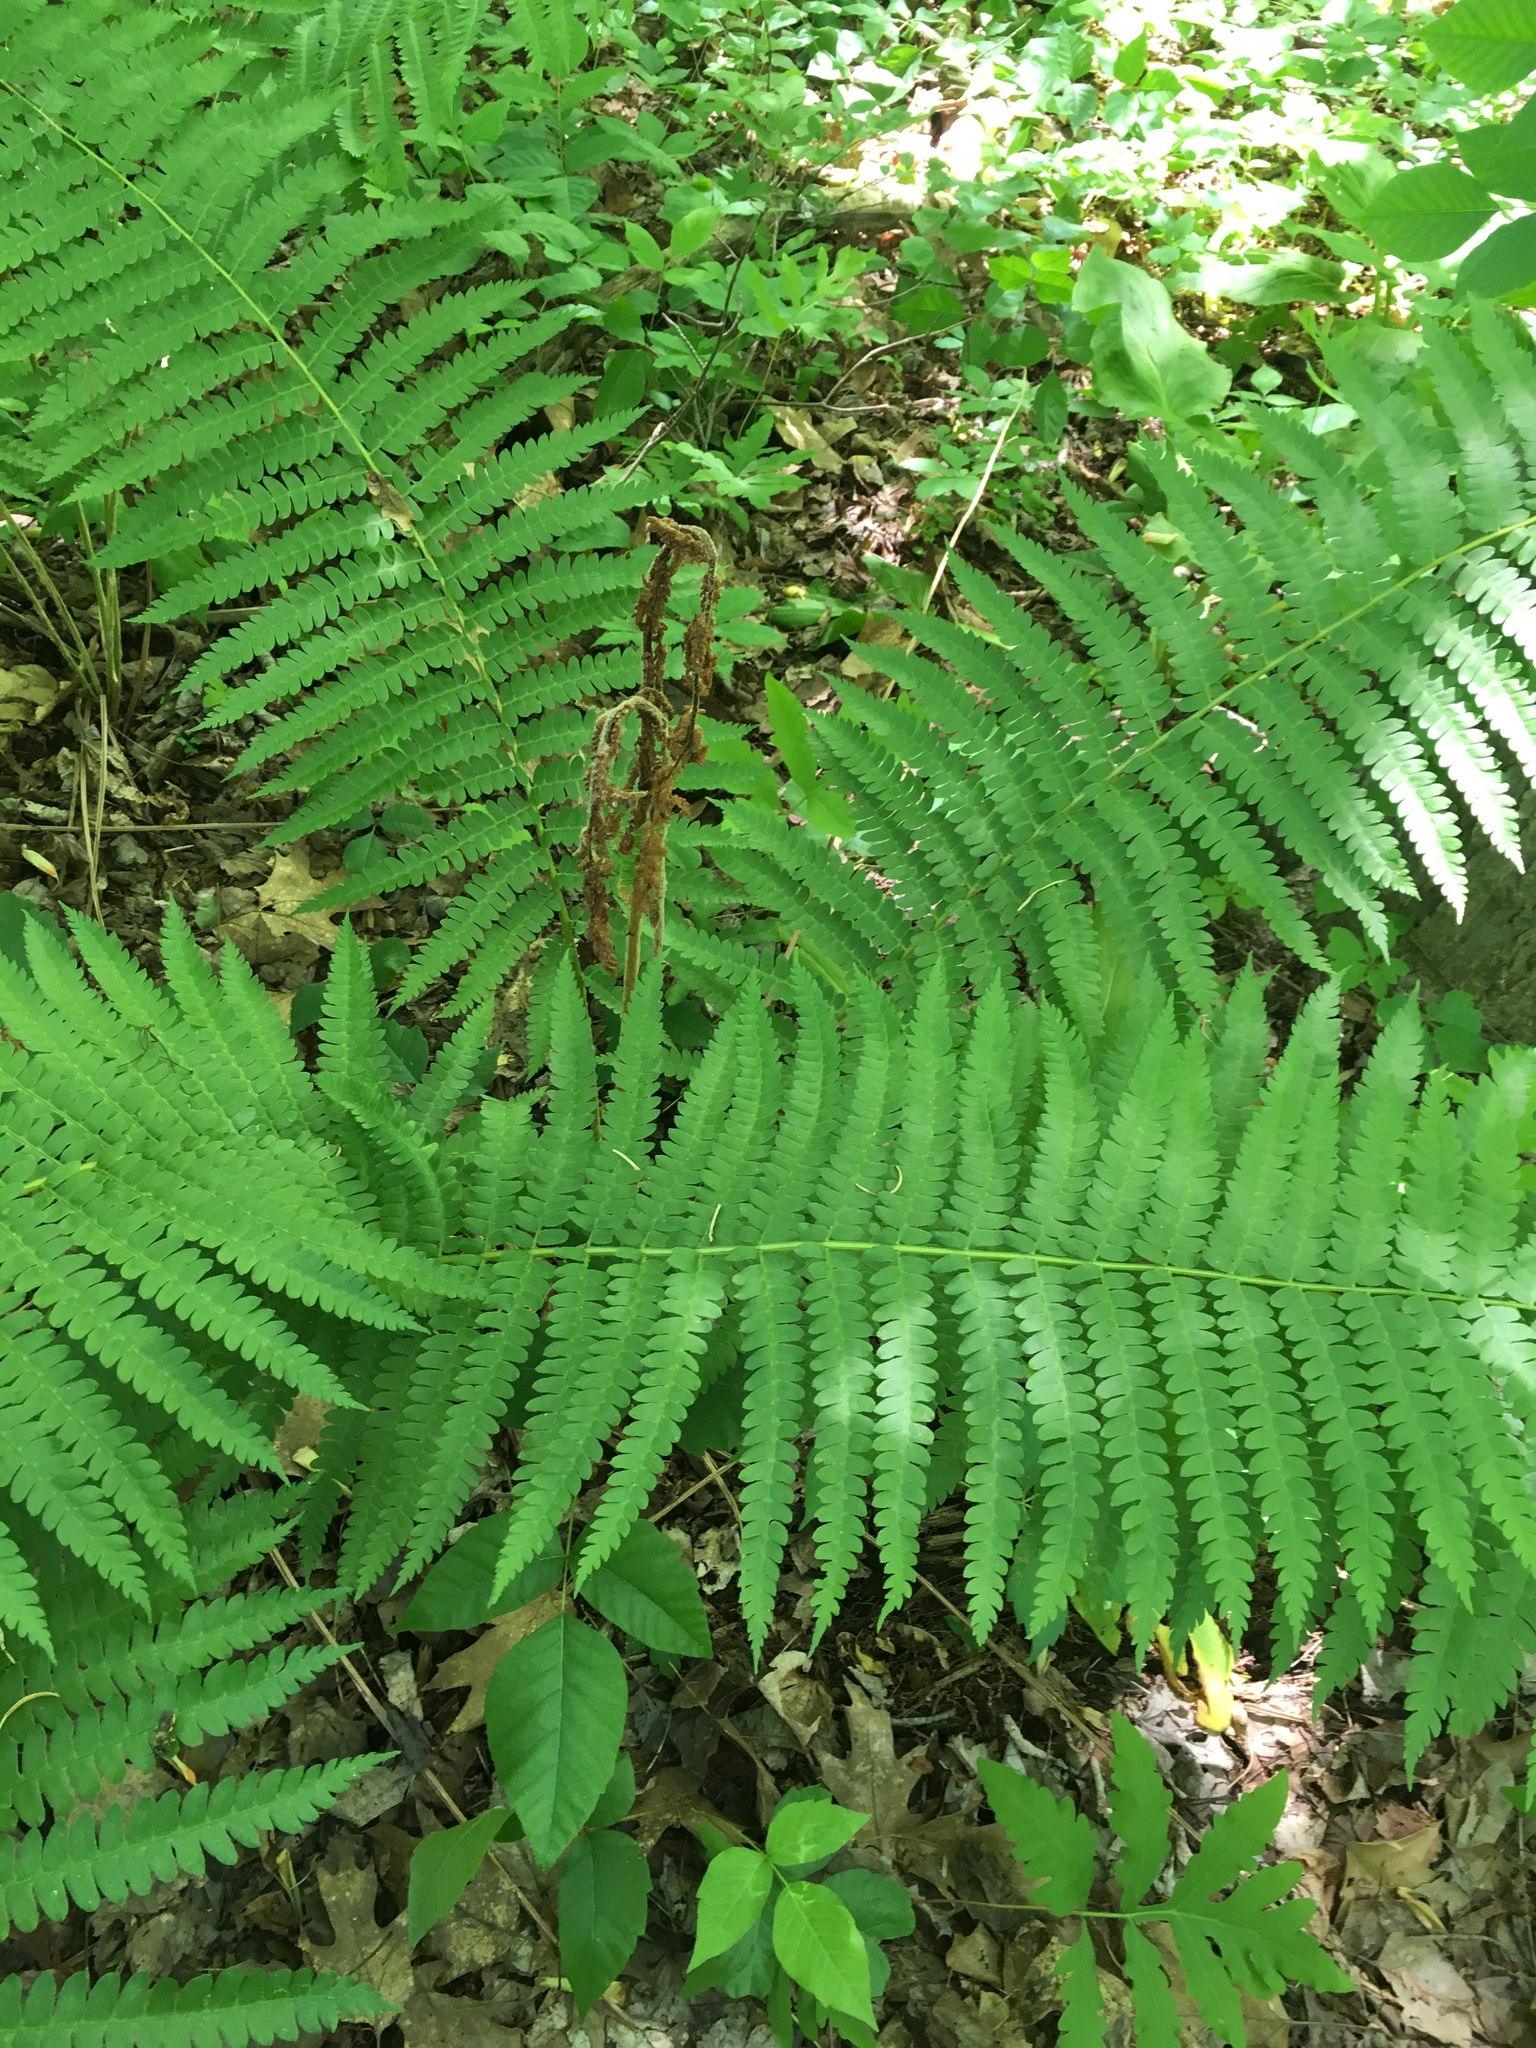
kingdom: Plantae
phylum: Tracheophyta
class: Polypodiopsida
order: Osmundales
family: Osmundaceae
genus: Osmundastrum
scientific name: Osmundastrum cinnamomeum
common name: Cinnamon fern
